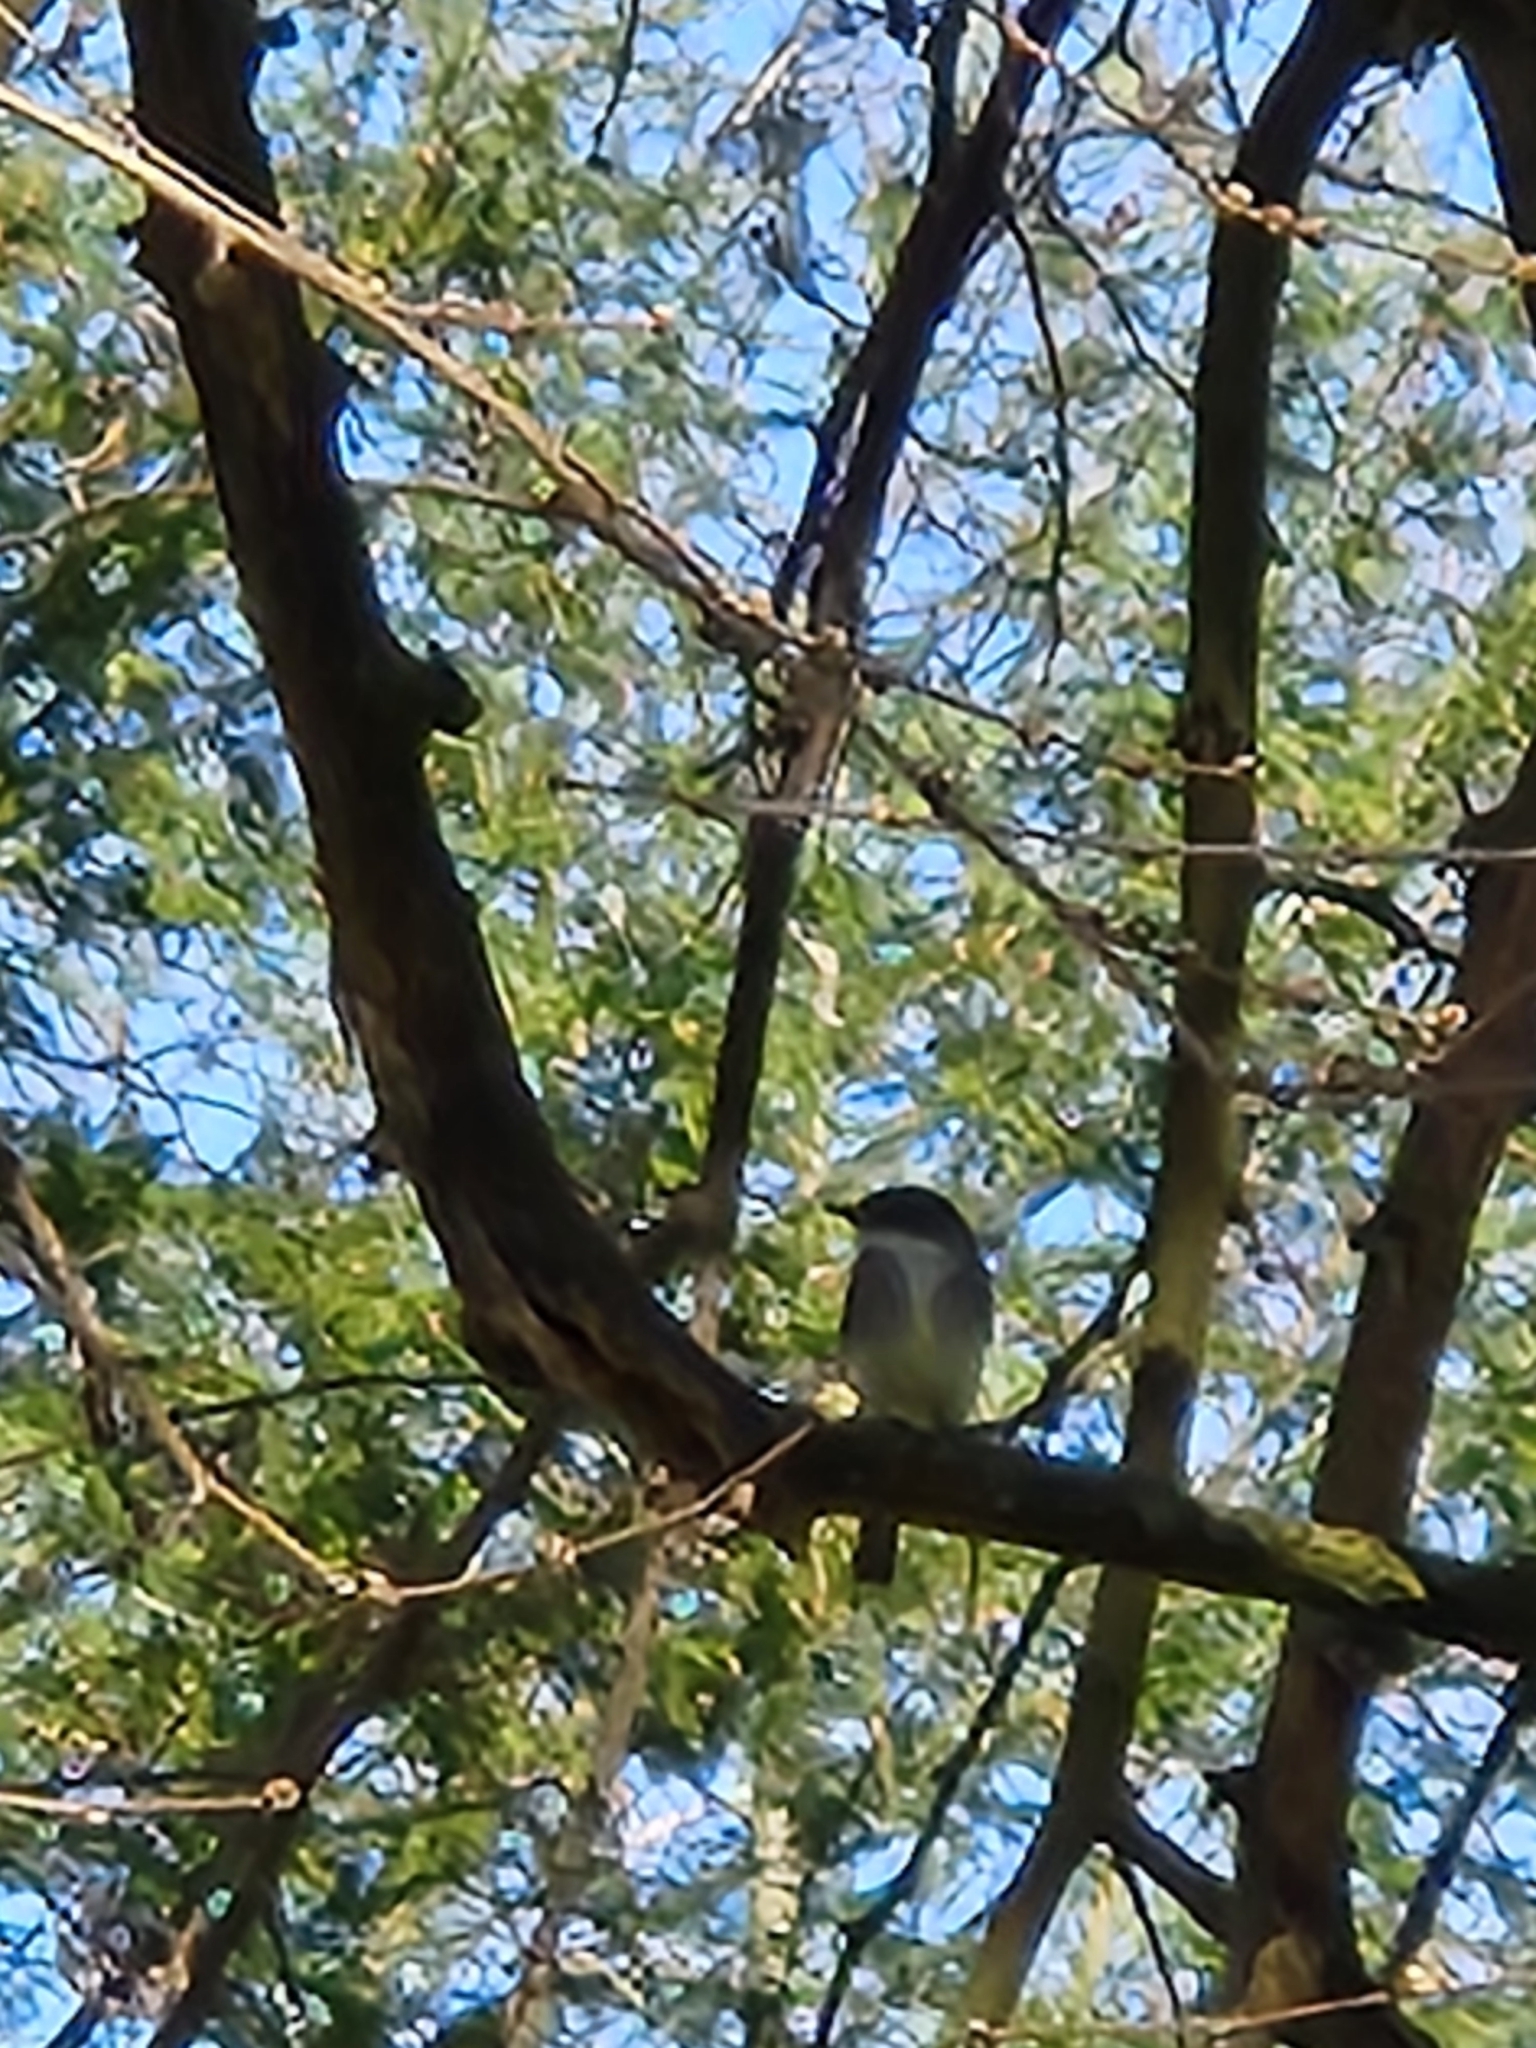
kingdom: Animalia
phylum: Chordata
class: Aves
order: Passeriformes
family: Tyrannidae
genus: Sayornis
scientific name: Sayornis phoebe
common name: Eastern phoebe
